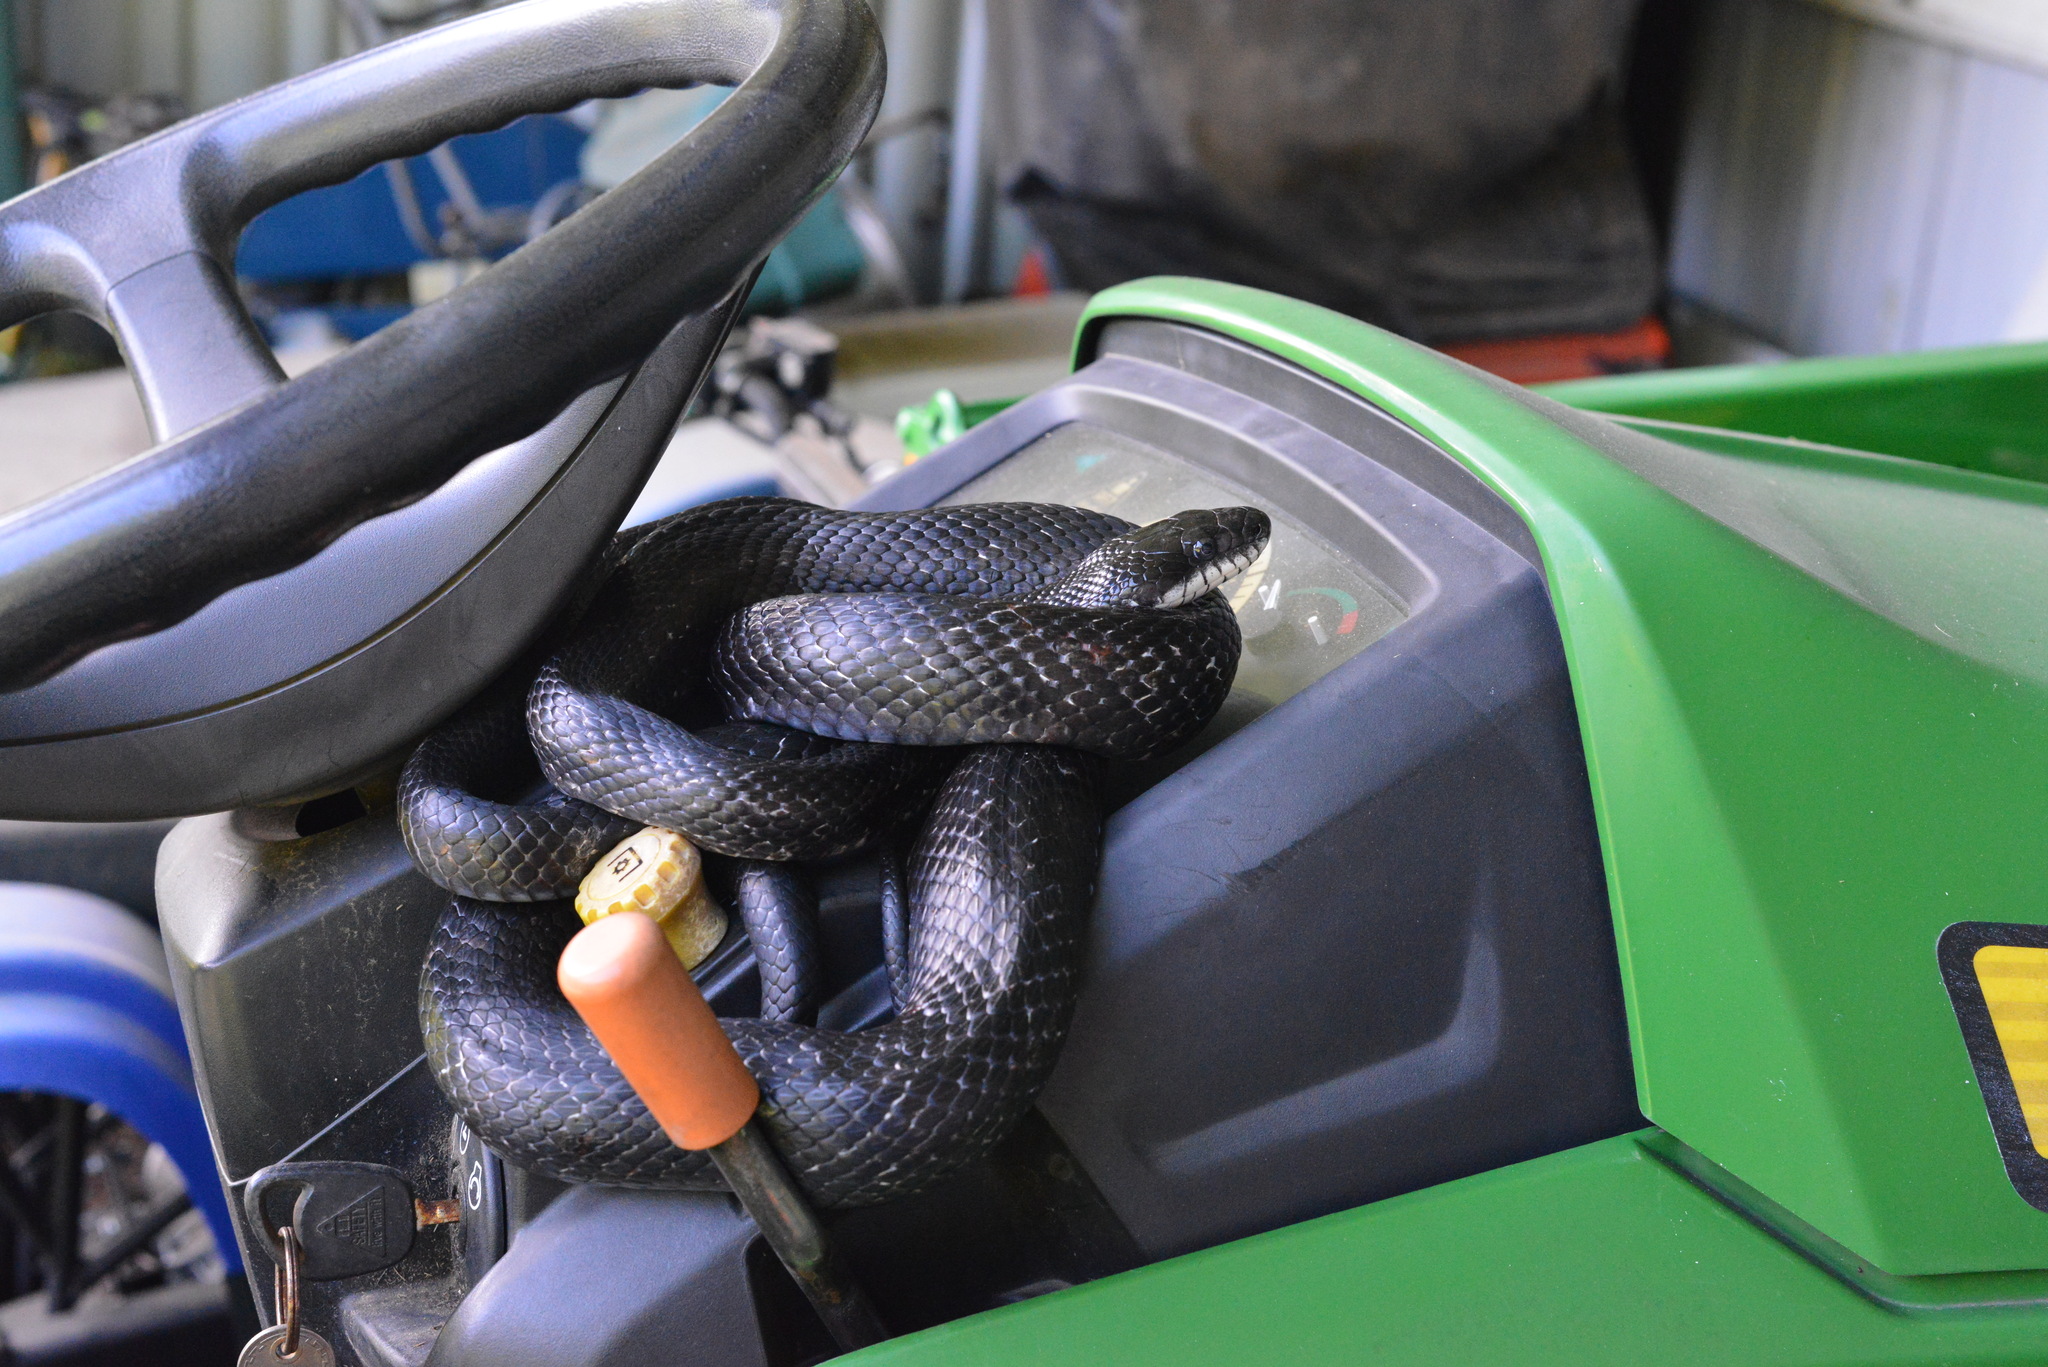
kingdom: Animalia
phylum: Chordata
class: Squamata
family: Colubridae
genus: Pantherophis
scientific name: Pantherophis
